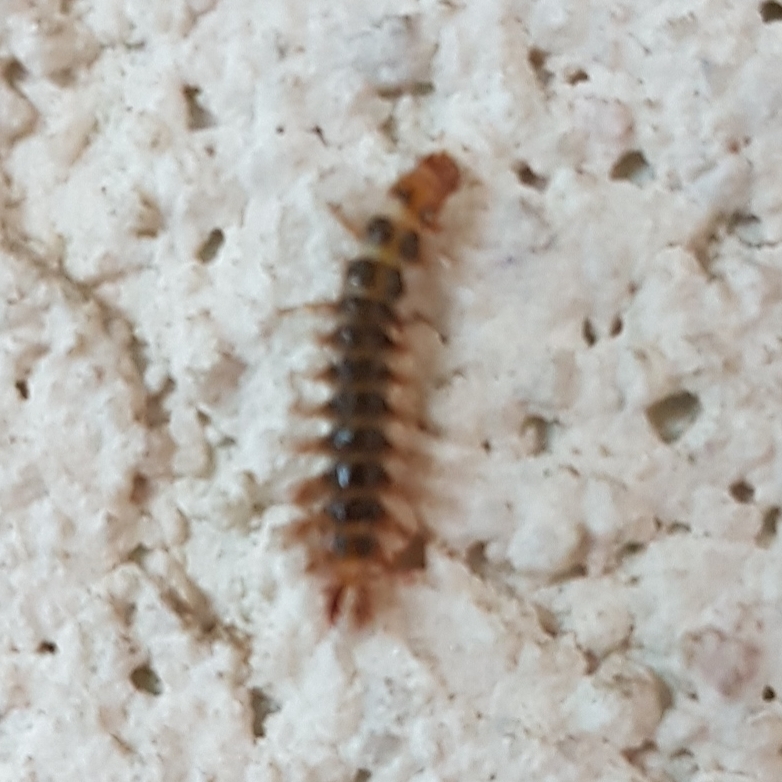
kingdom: Animalia
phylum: Arthropoda
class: Insecta
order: Coleoptera
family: Drilidae
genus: Drilus
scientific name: Drilus flavescens
